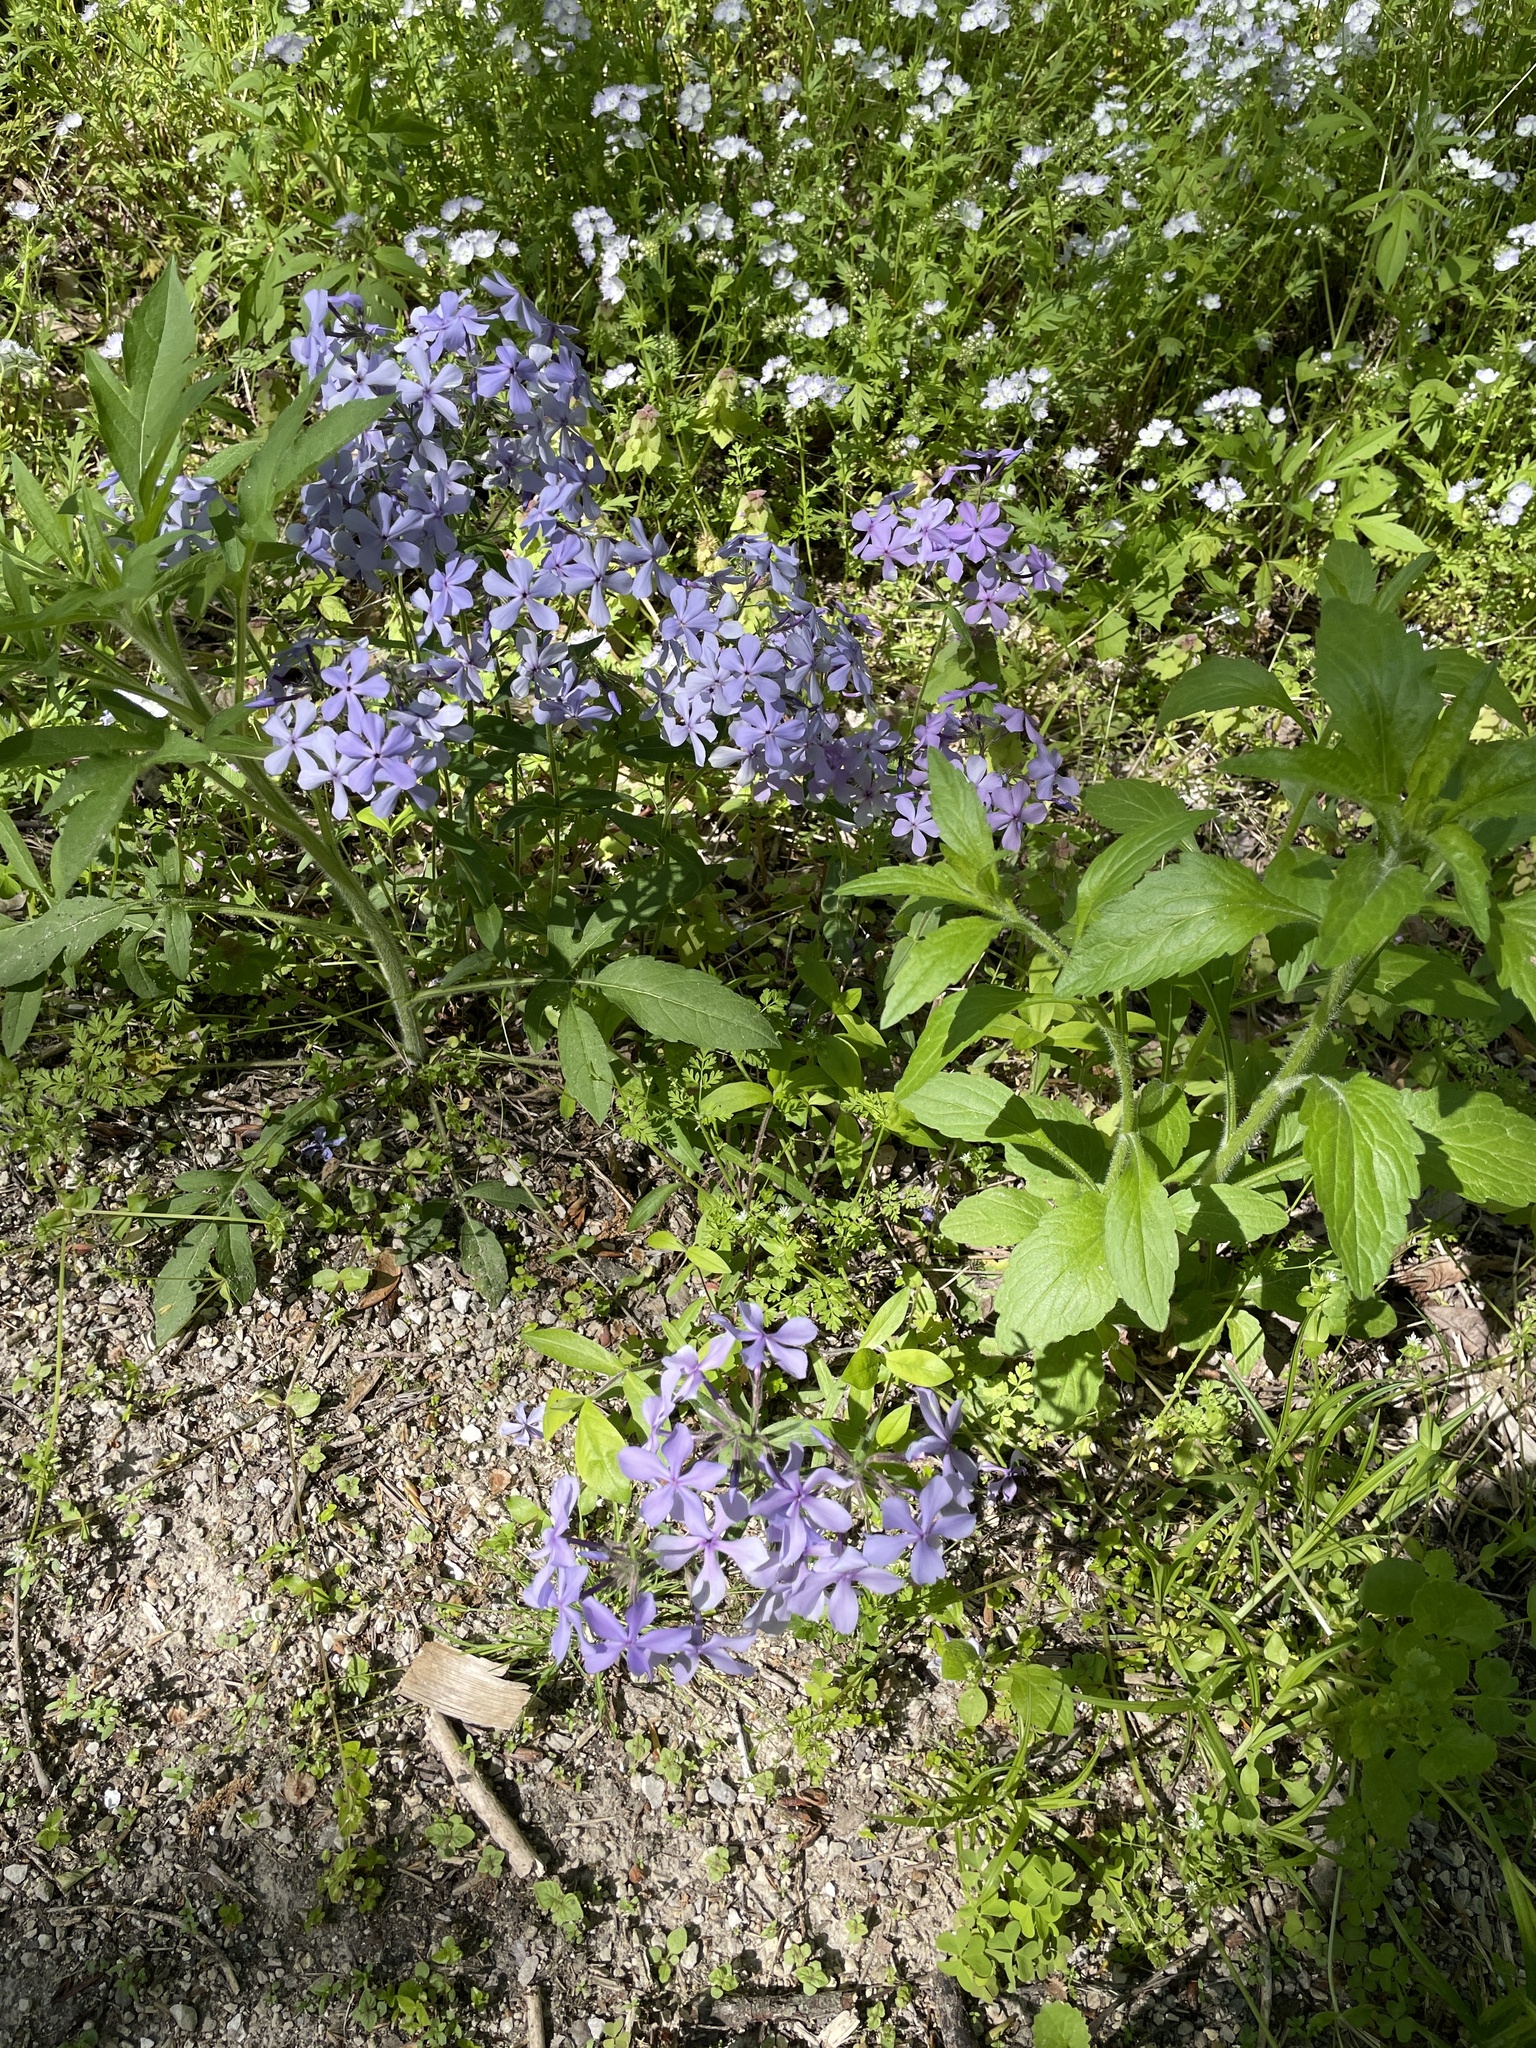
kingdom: Plantae
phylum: Tracheophyta
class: Magnoliopsida
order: Ericales
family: Polemoniaceae
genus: Phlox
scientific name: Phlox divaricata
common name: Blue phlox
